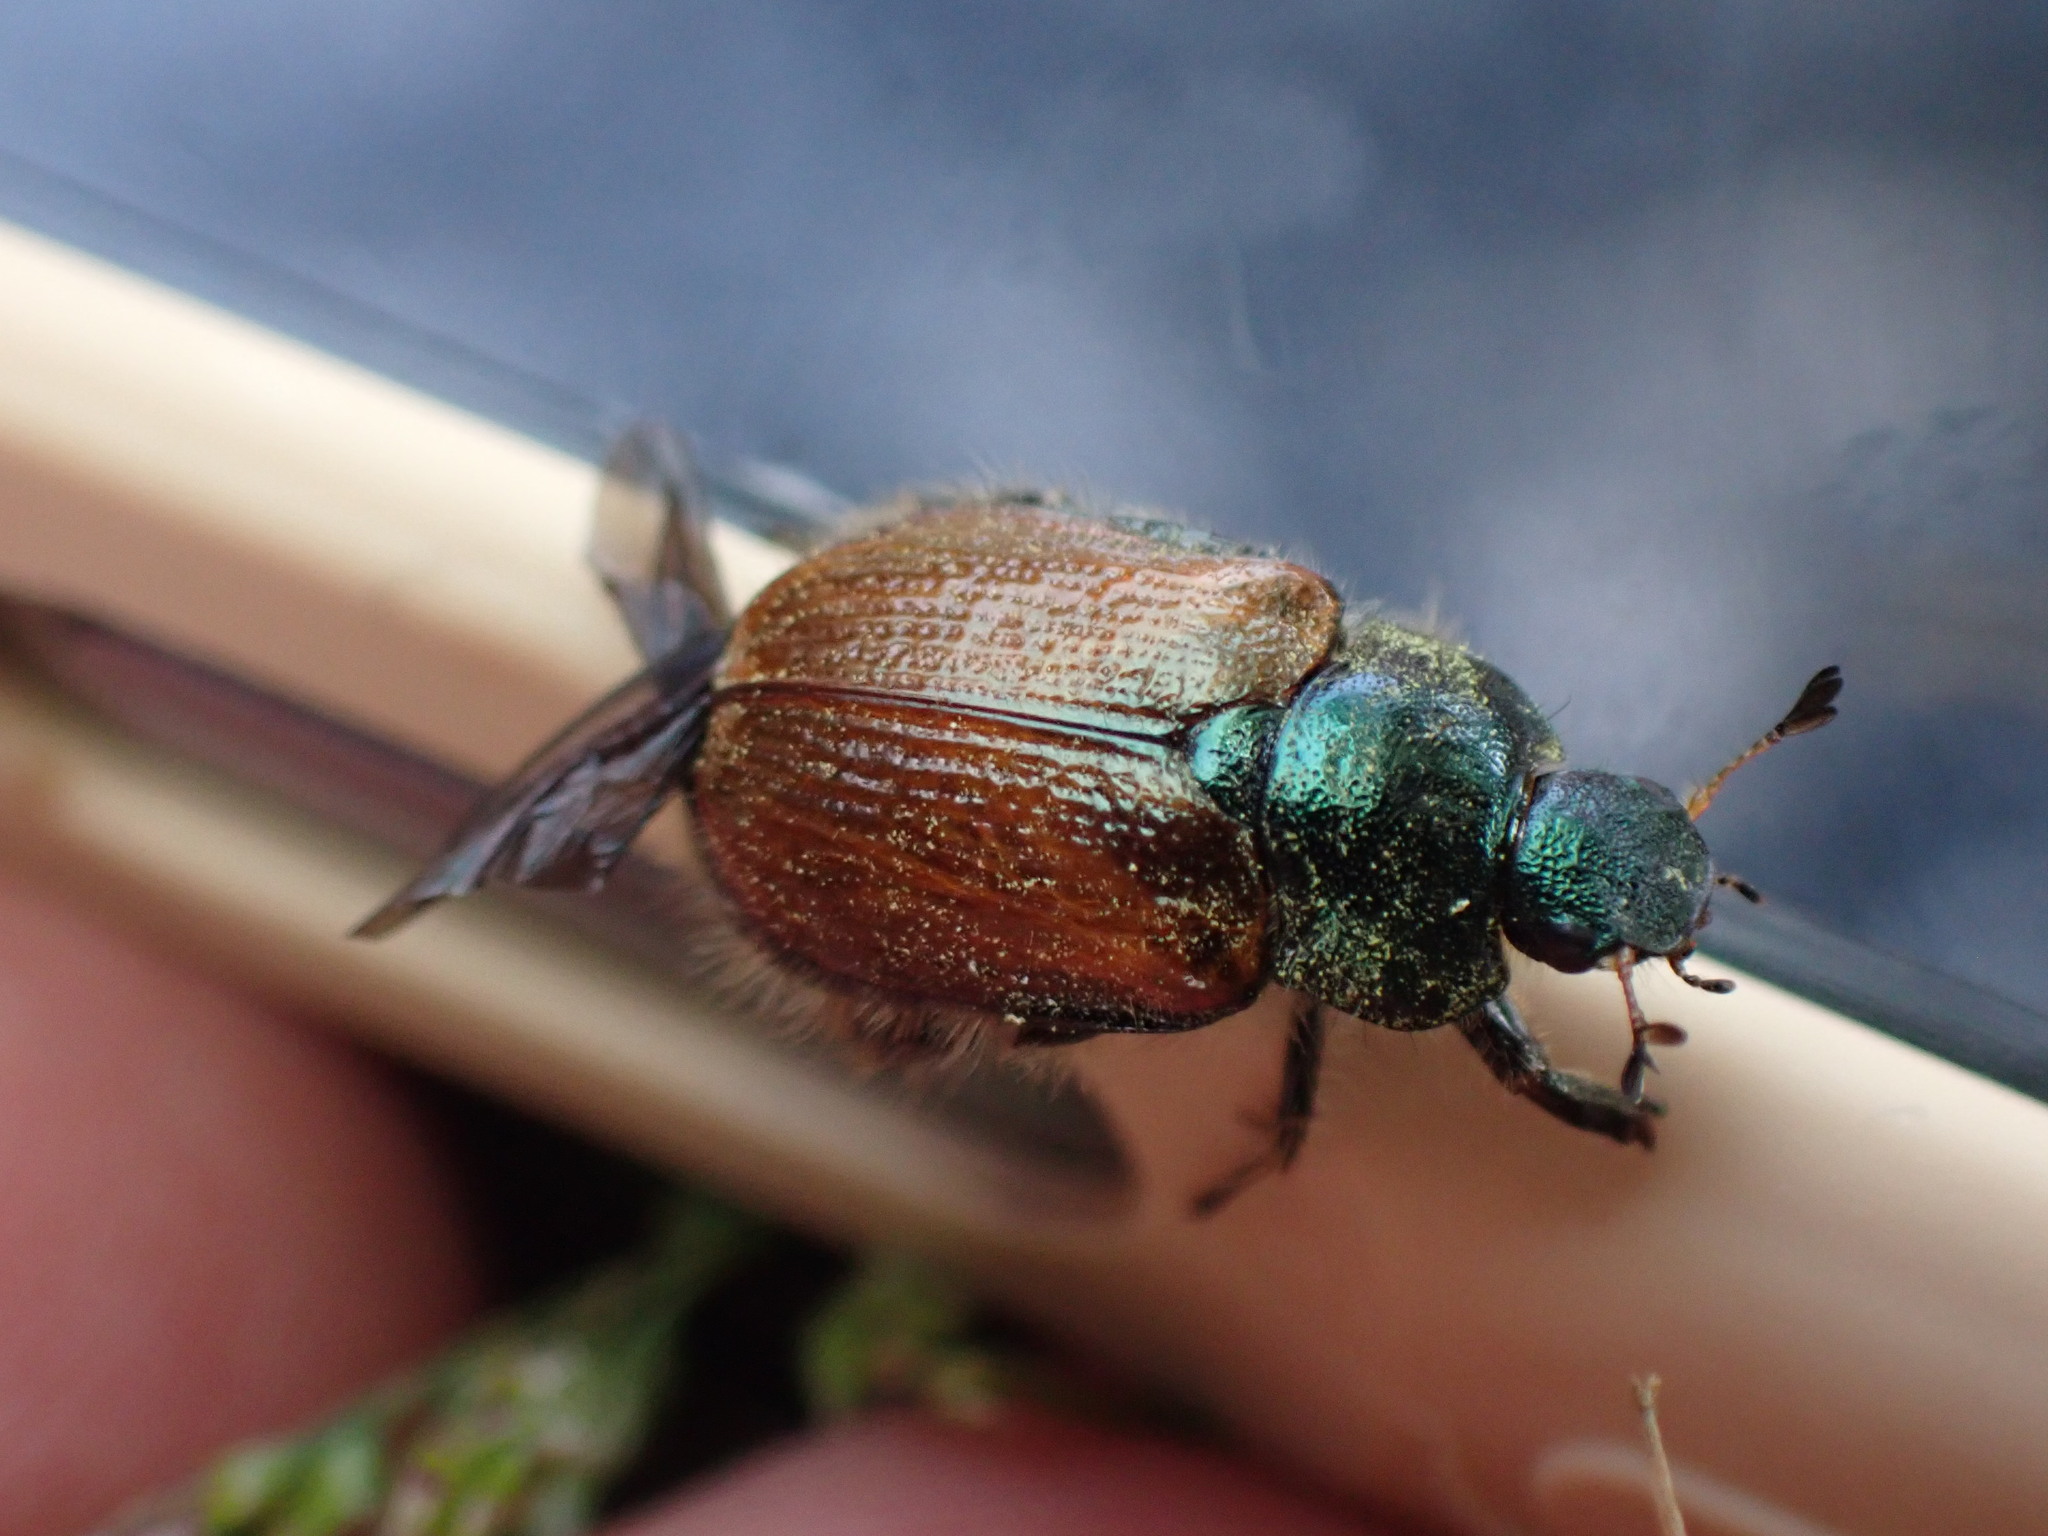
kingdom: Animalia
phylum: Arthropoda
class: Insecta
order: Coleoptera
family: Scarabaeidae
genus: Phyllopertha
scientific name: Phyllopertha horticola
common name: Garden chafer
